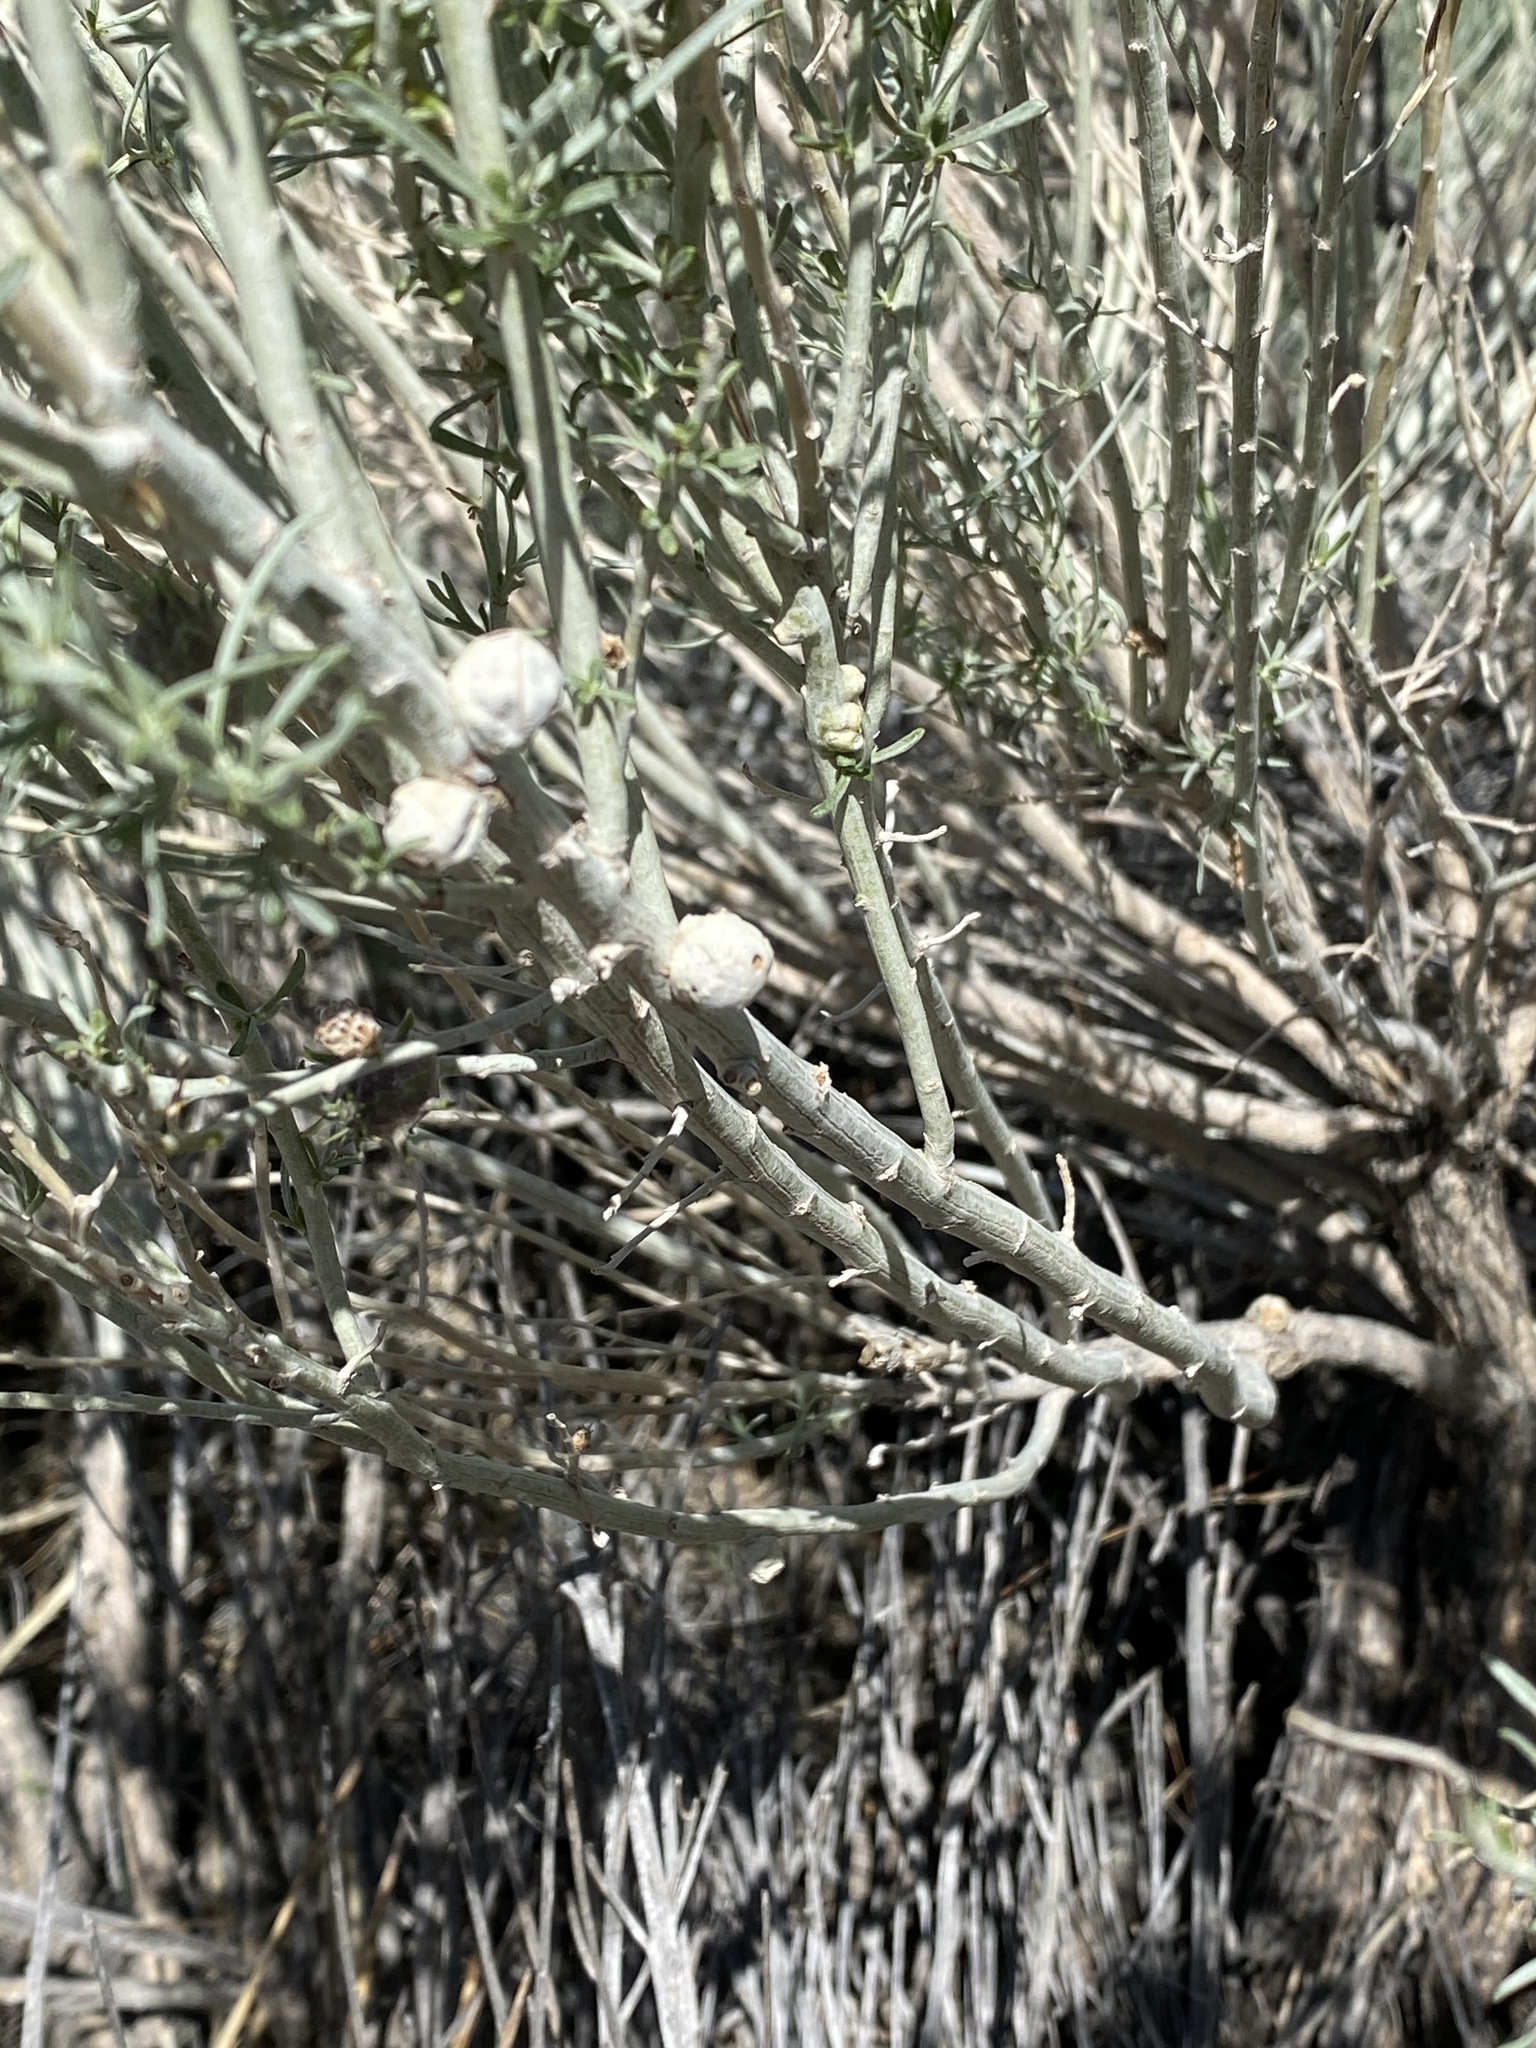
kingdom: Animalia
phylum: Arthropoda
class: Insecta
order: Diptera
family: Tephritidae
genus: Aciurina
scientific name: Aciurina trixa
